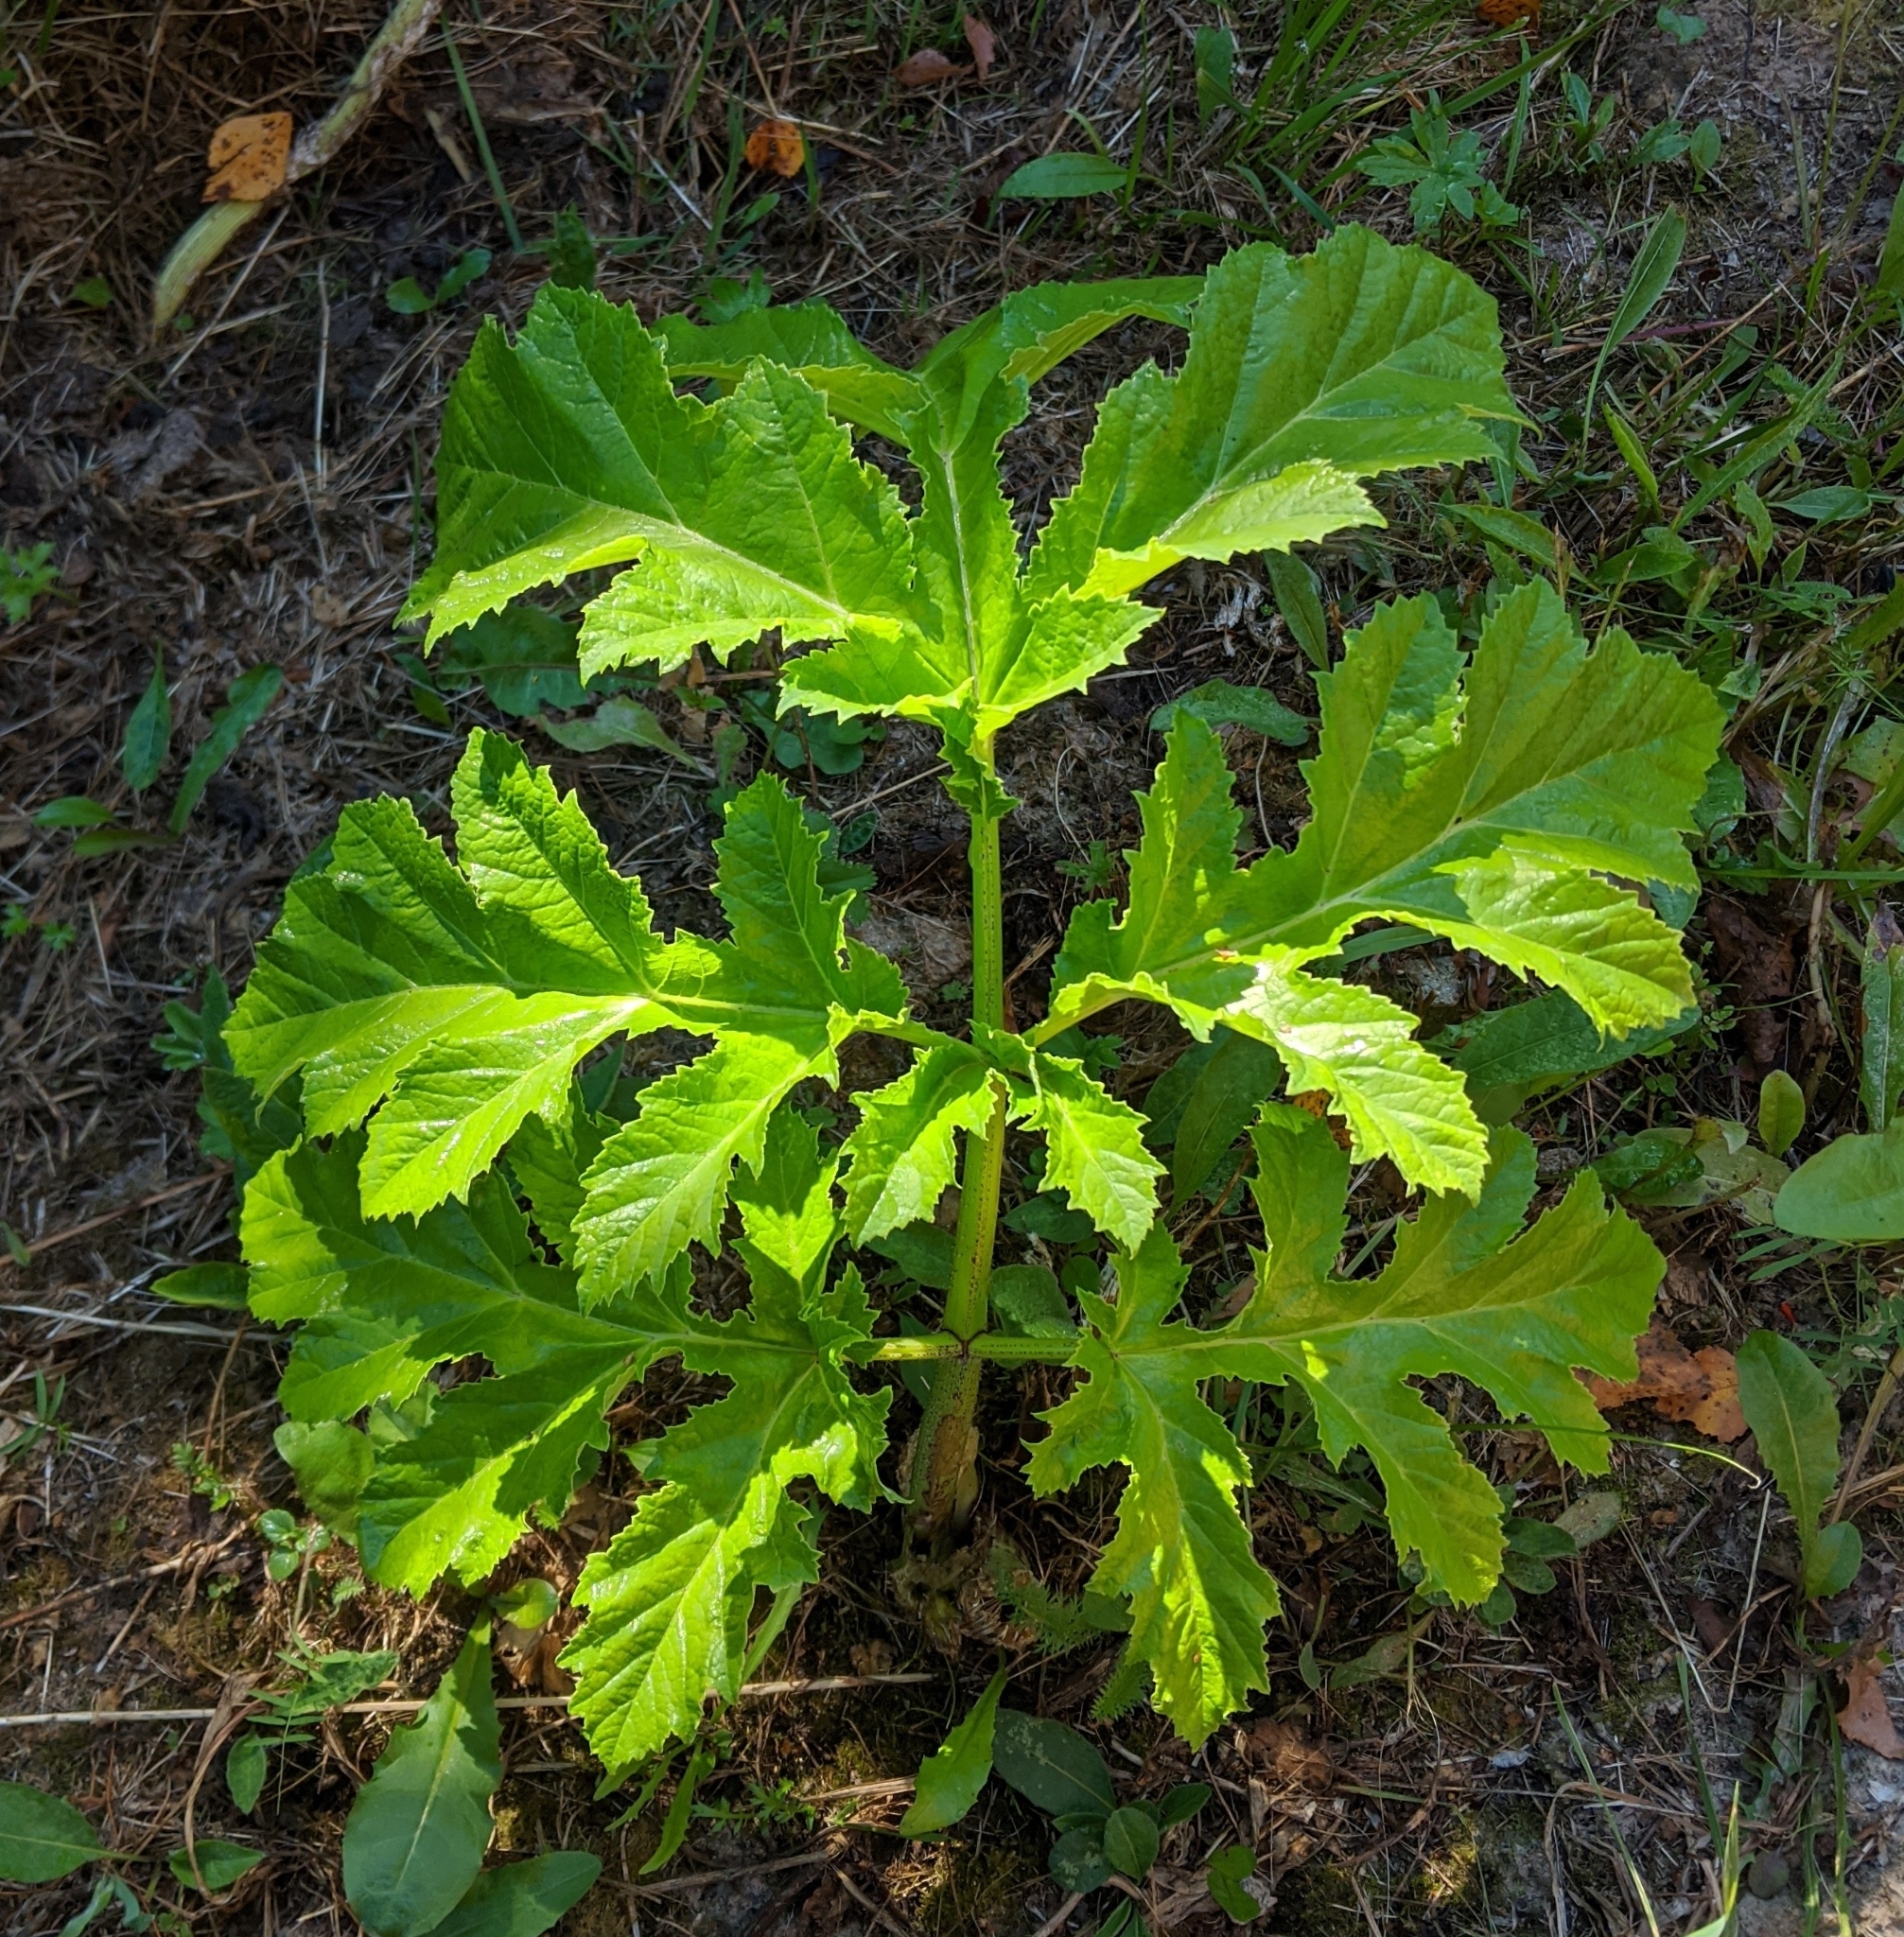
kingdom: Plantae
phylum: Tracheophyta
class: Magnoliopsida
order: Apiales
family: Apiaceae
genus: Heracleum
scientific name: Heracleum sosnowskyi
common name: Sosnowsky's hogweed
